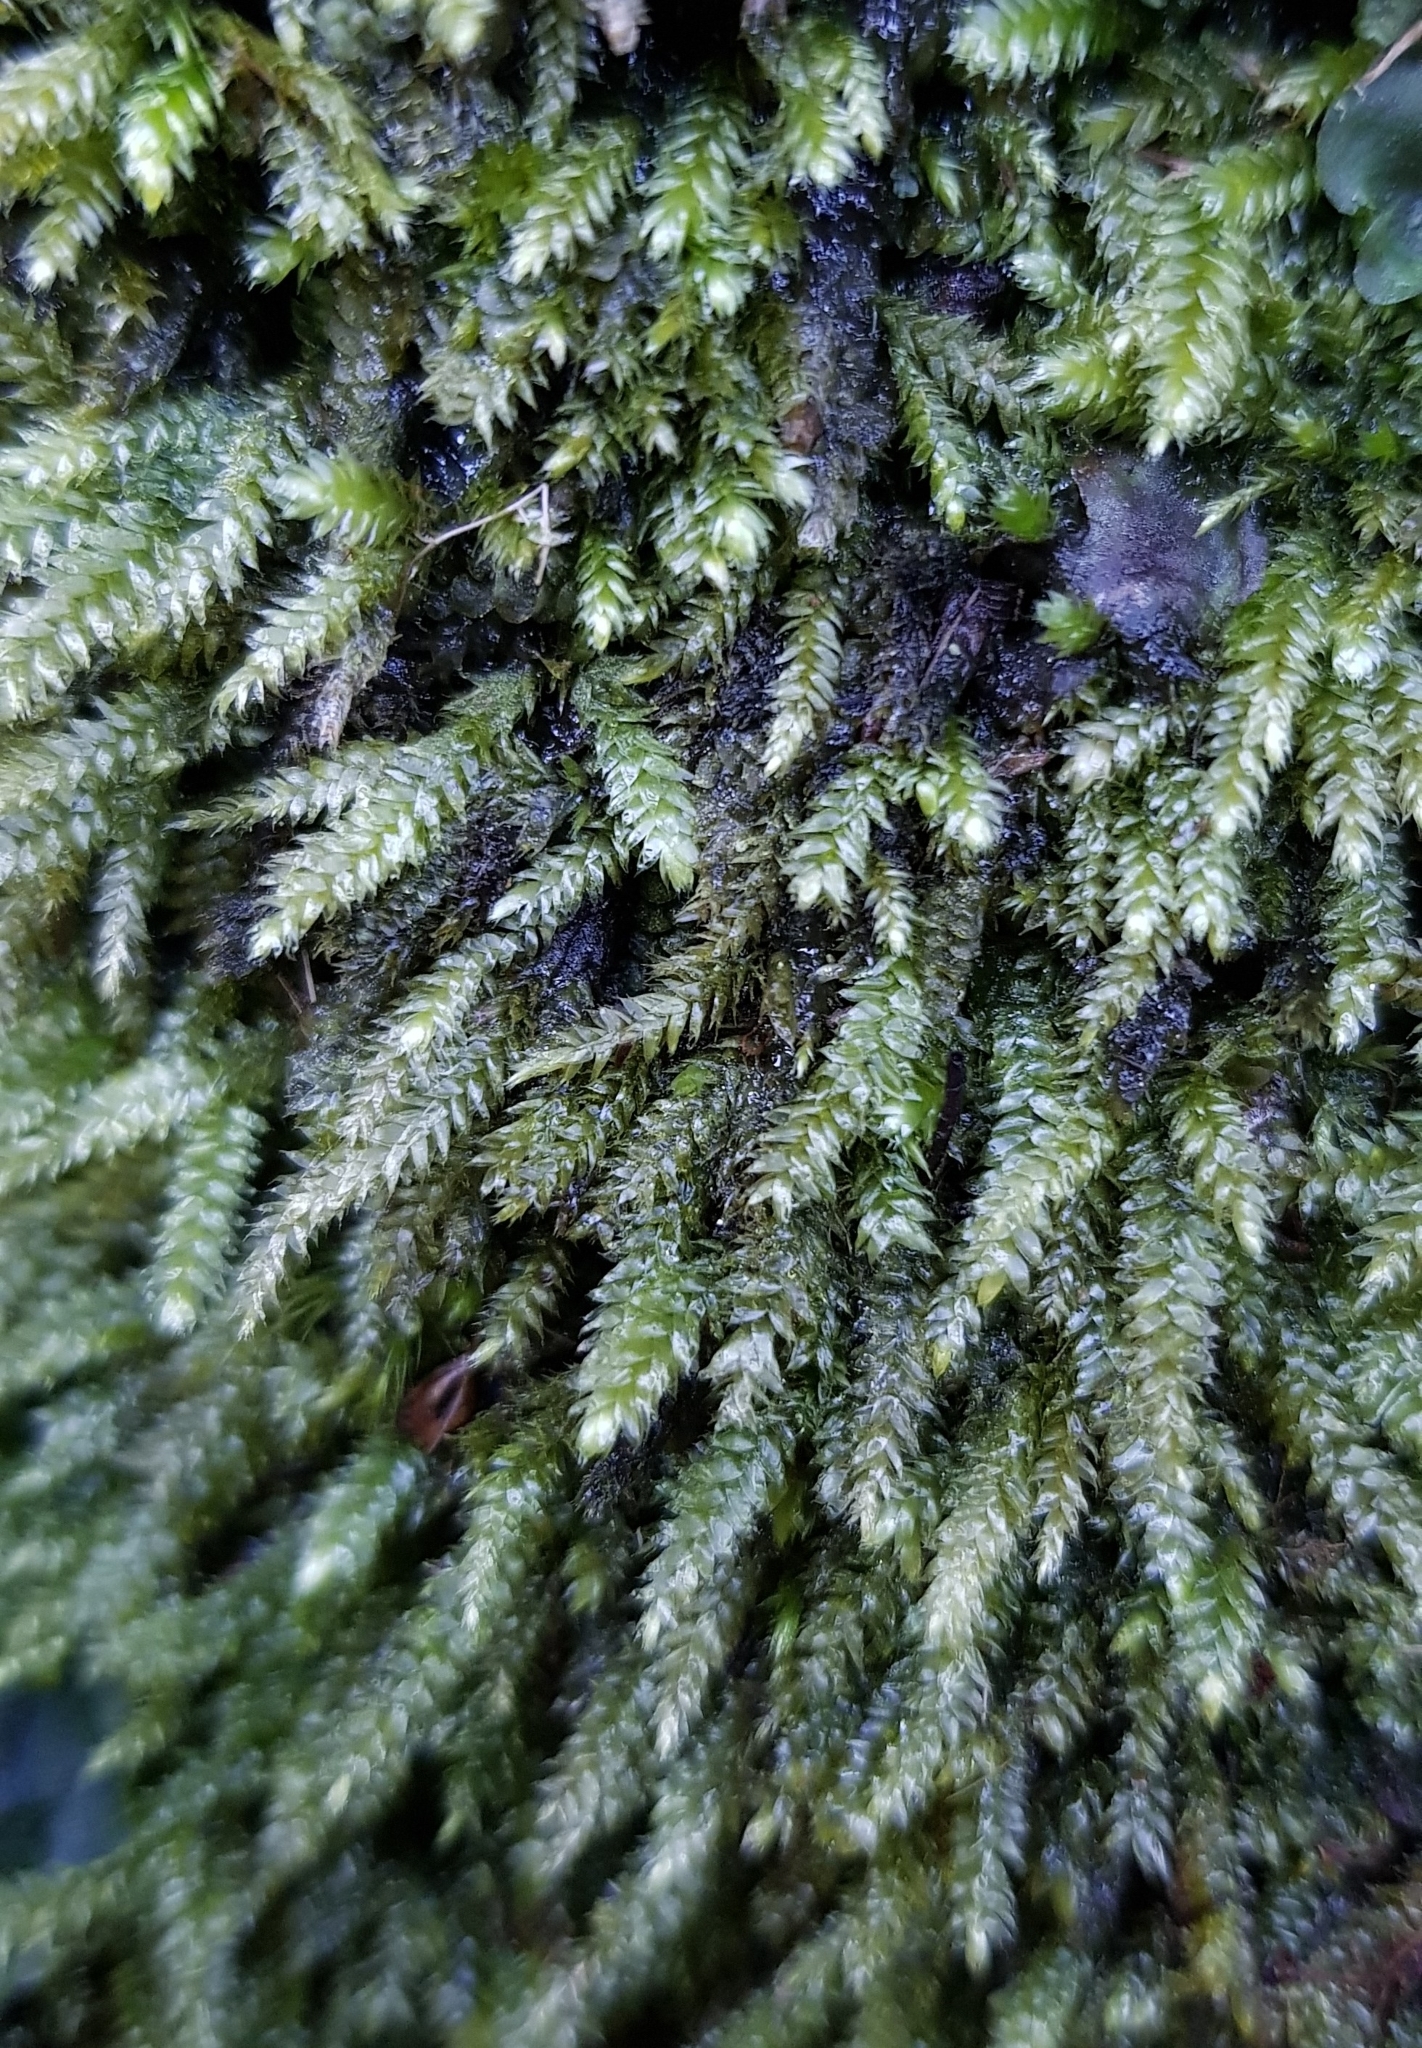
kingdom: Plantae
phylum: Bryophyta
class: Bryopsida
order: Hypnales
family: Plagiotheciaceae
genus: Pseudotaxiphyllum
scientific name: Pseudotaxiphyllum elegans
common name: Elegant silk moss
